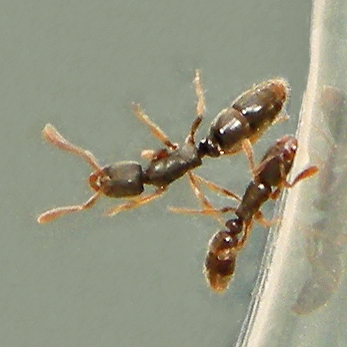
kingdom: Animalia
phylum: Arthropoda
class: Insecta
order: Hymenoptera
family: Formicidae
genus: Ponera
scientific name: Ponera pennsylvanica
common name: Pennsylvania ponera
